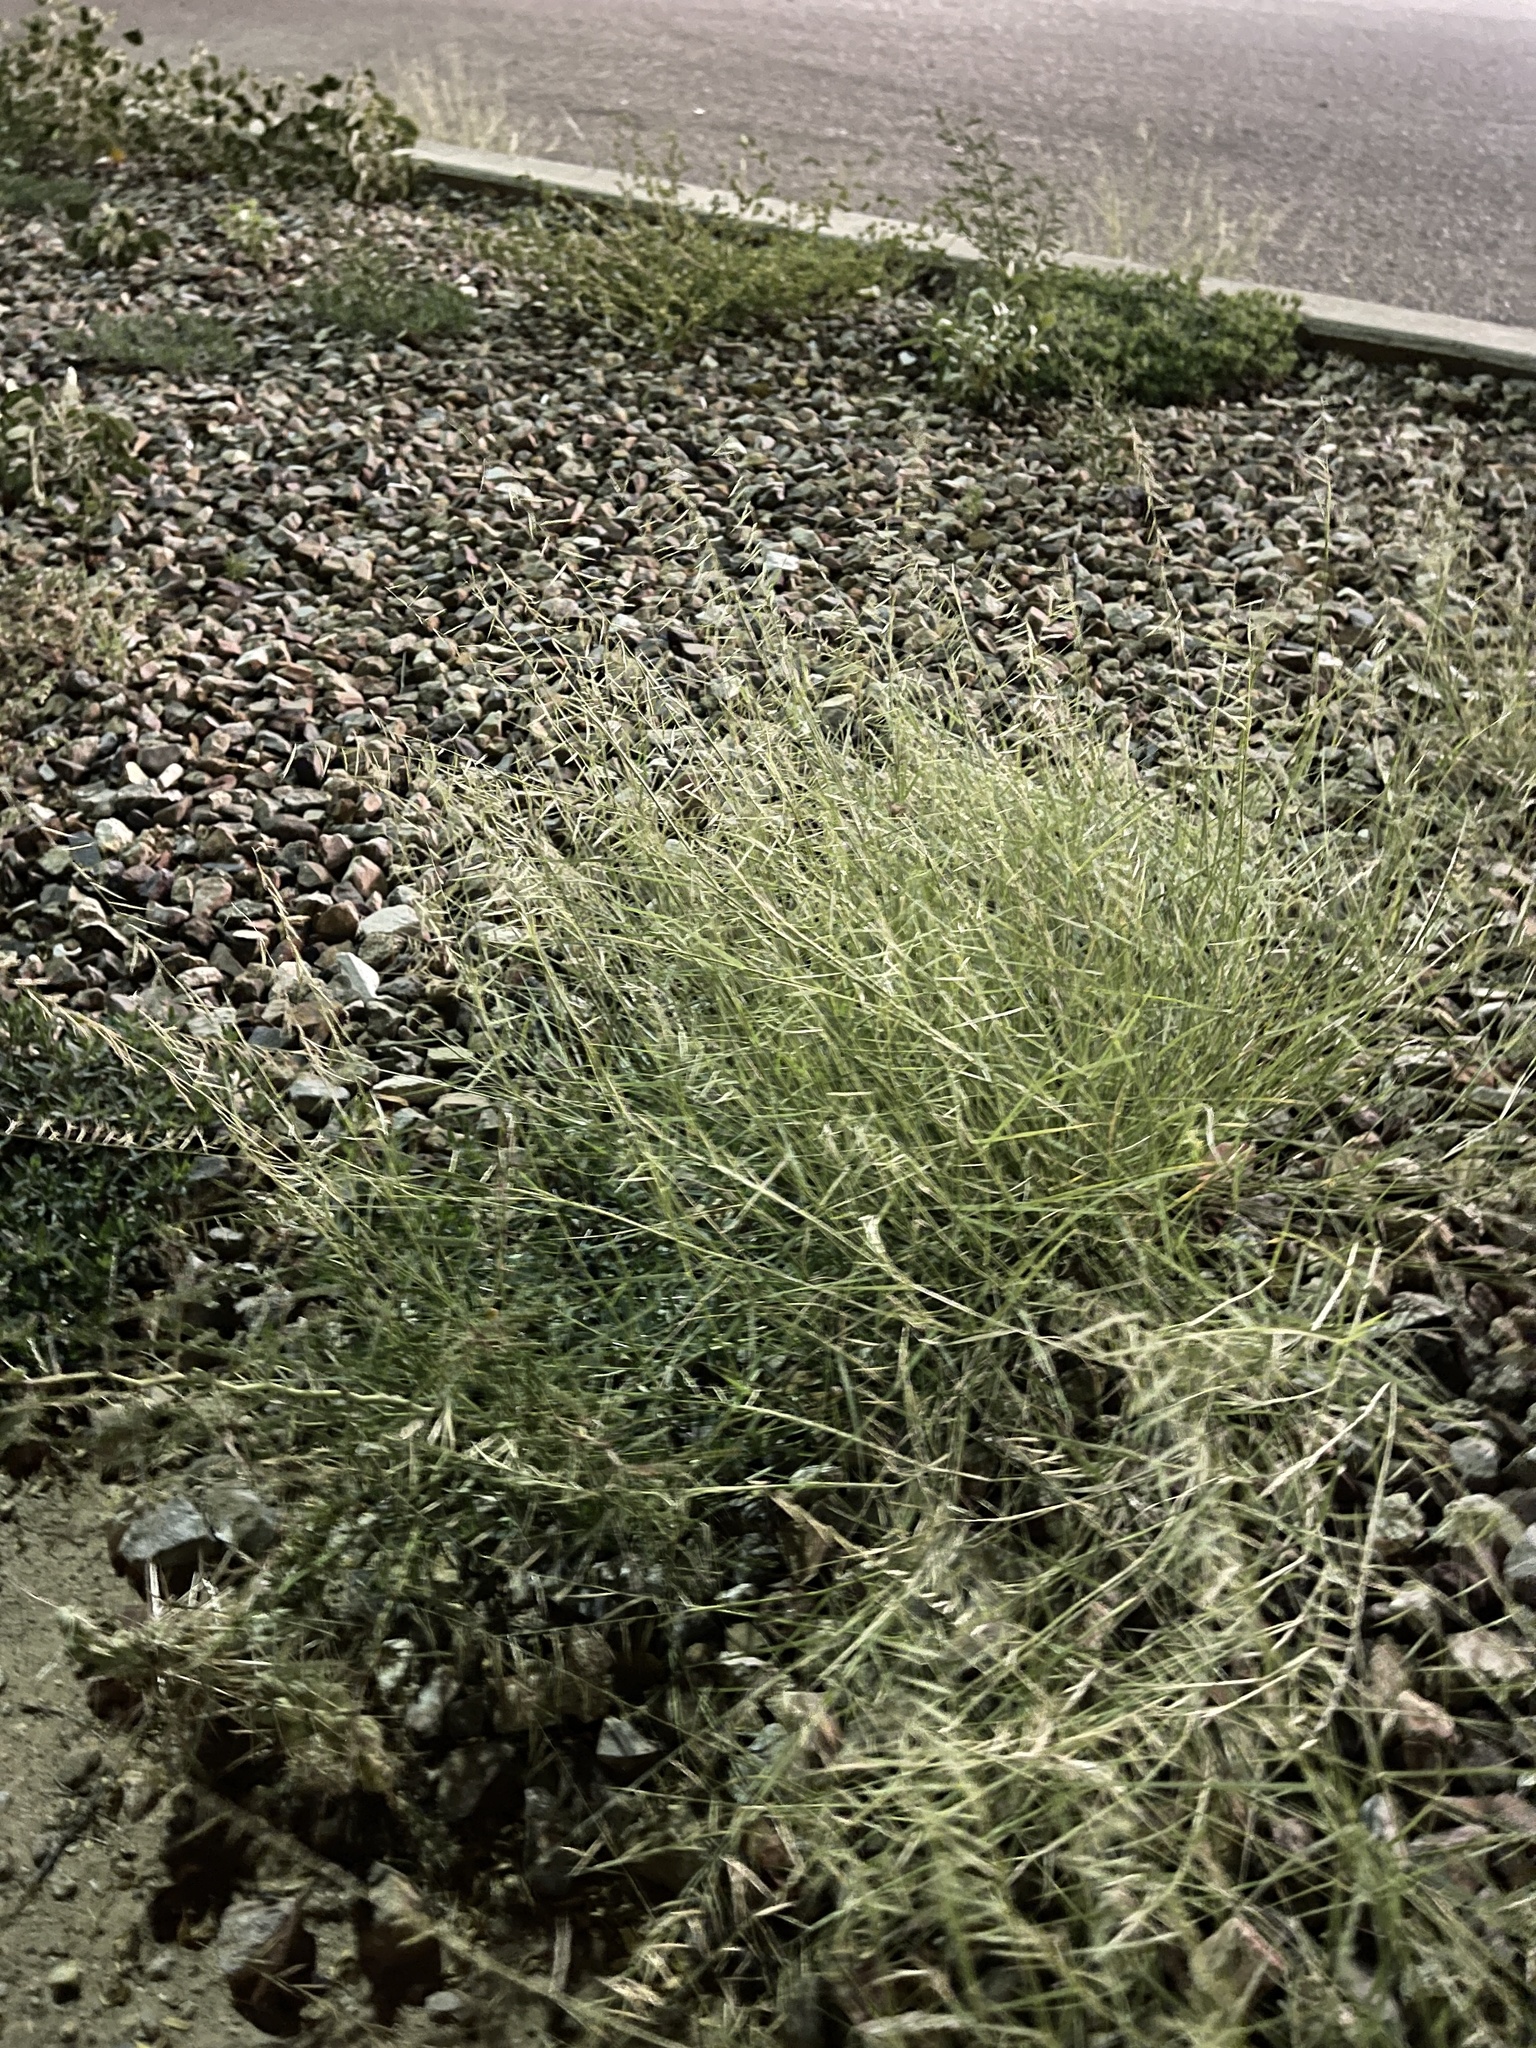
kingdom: Plantae
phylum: Tracheophyta
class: Liliopsida
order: Poales
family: Poaceae
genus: Bouteloua
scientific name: Bouteloua aristidoides
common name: Needle grama
